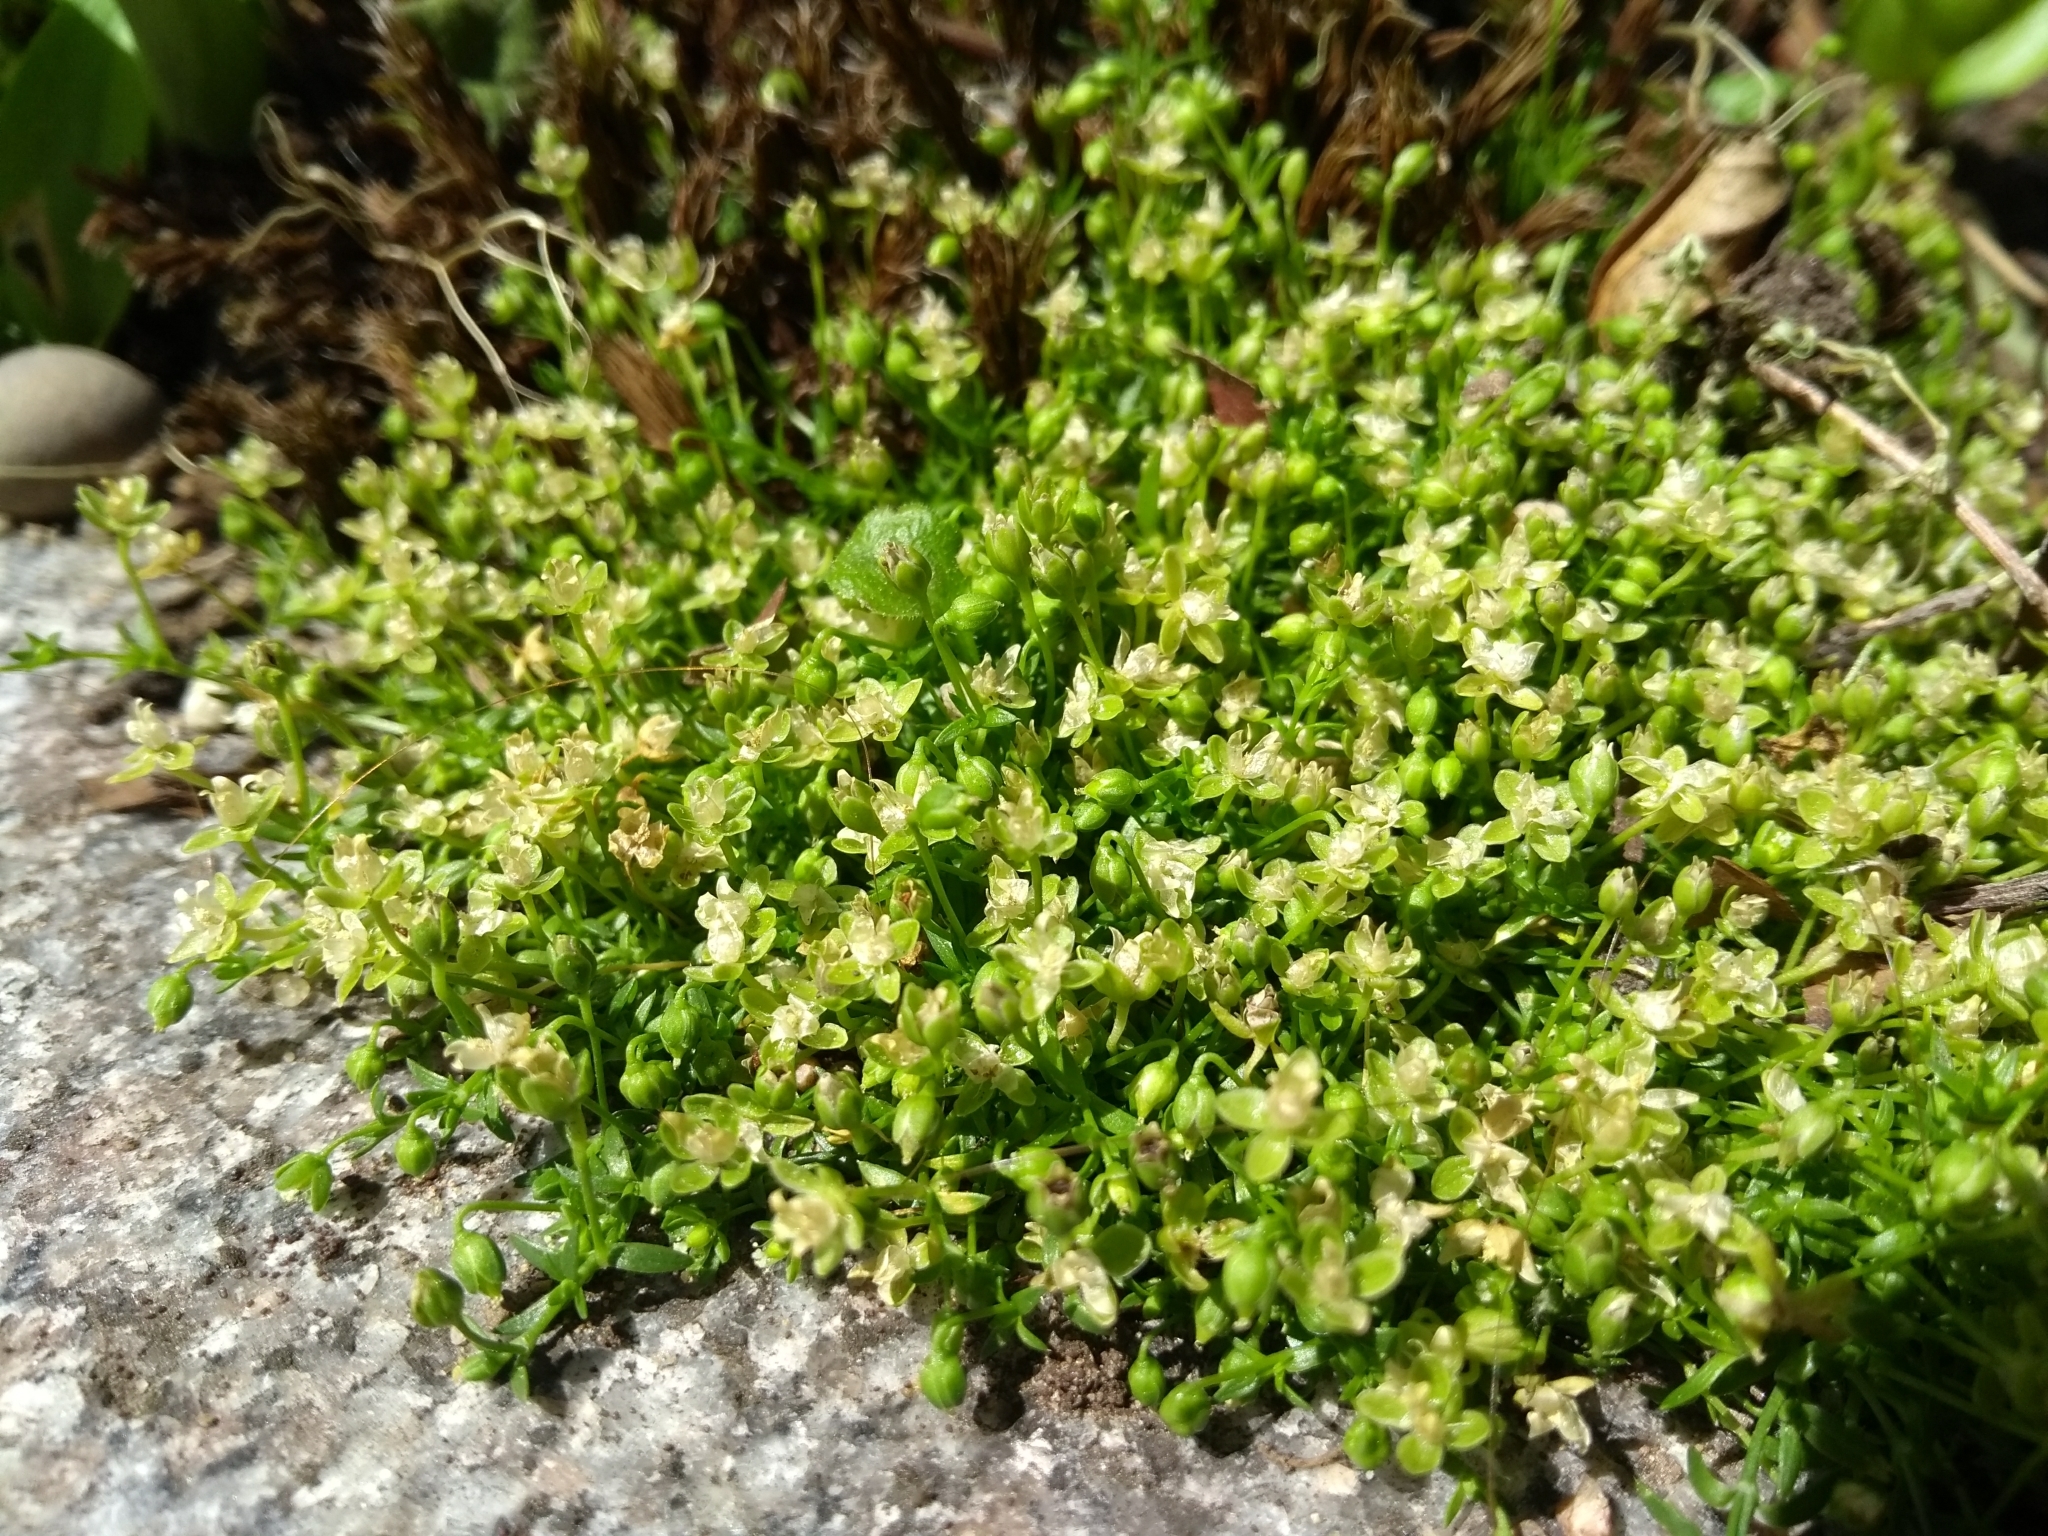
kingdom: Plantae
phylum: Tracheophyta
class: Magnoliopsida
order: Caryophyllales
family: Caryophyllaceae
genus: Sagina
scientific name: Sagina procumbens
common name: Procumbent pearlwort
